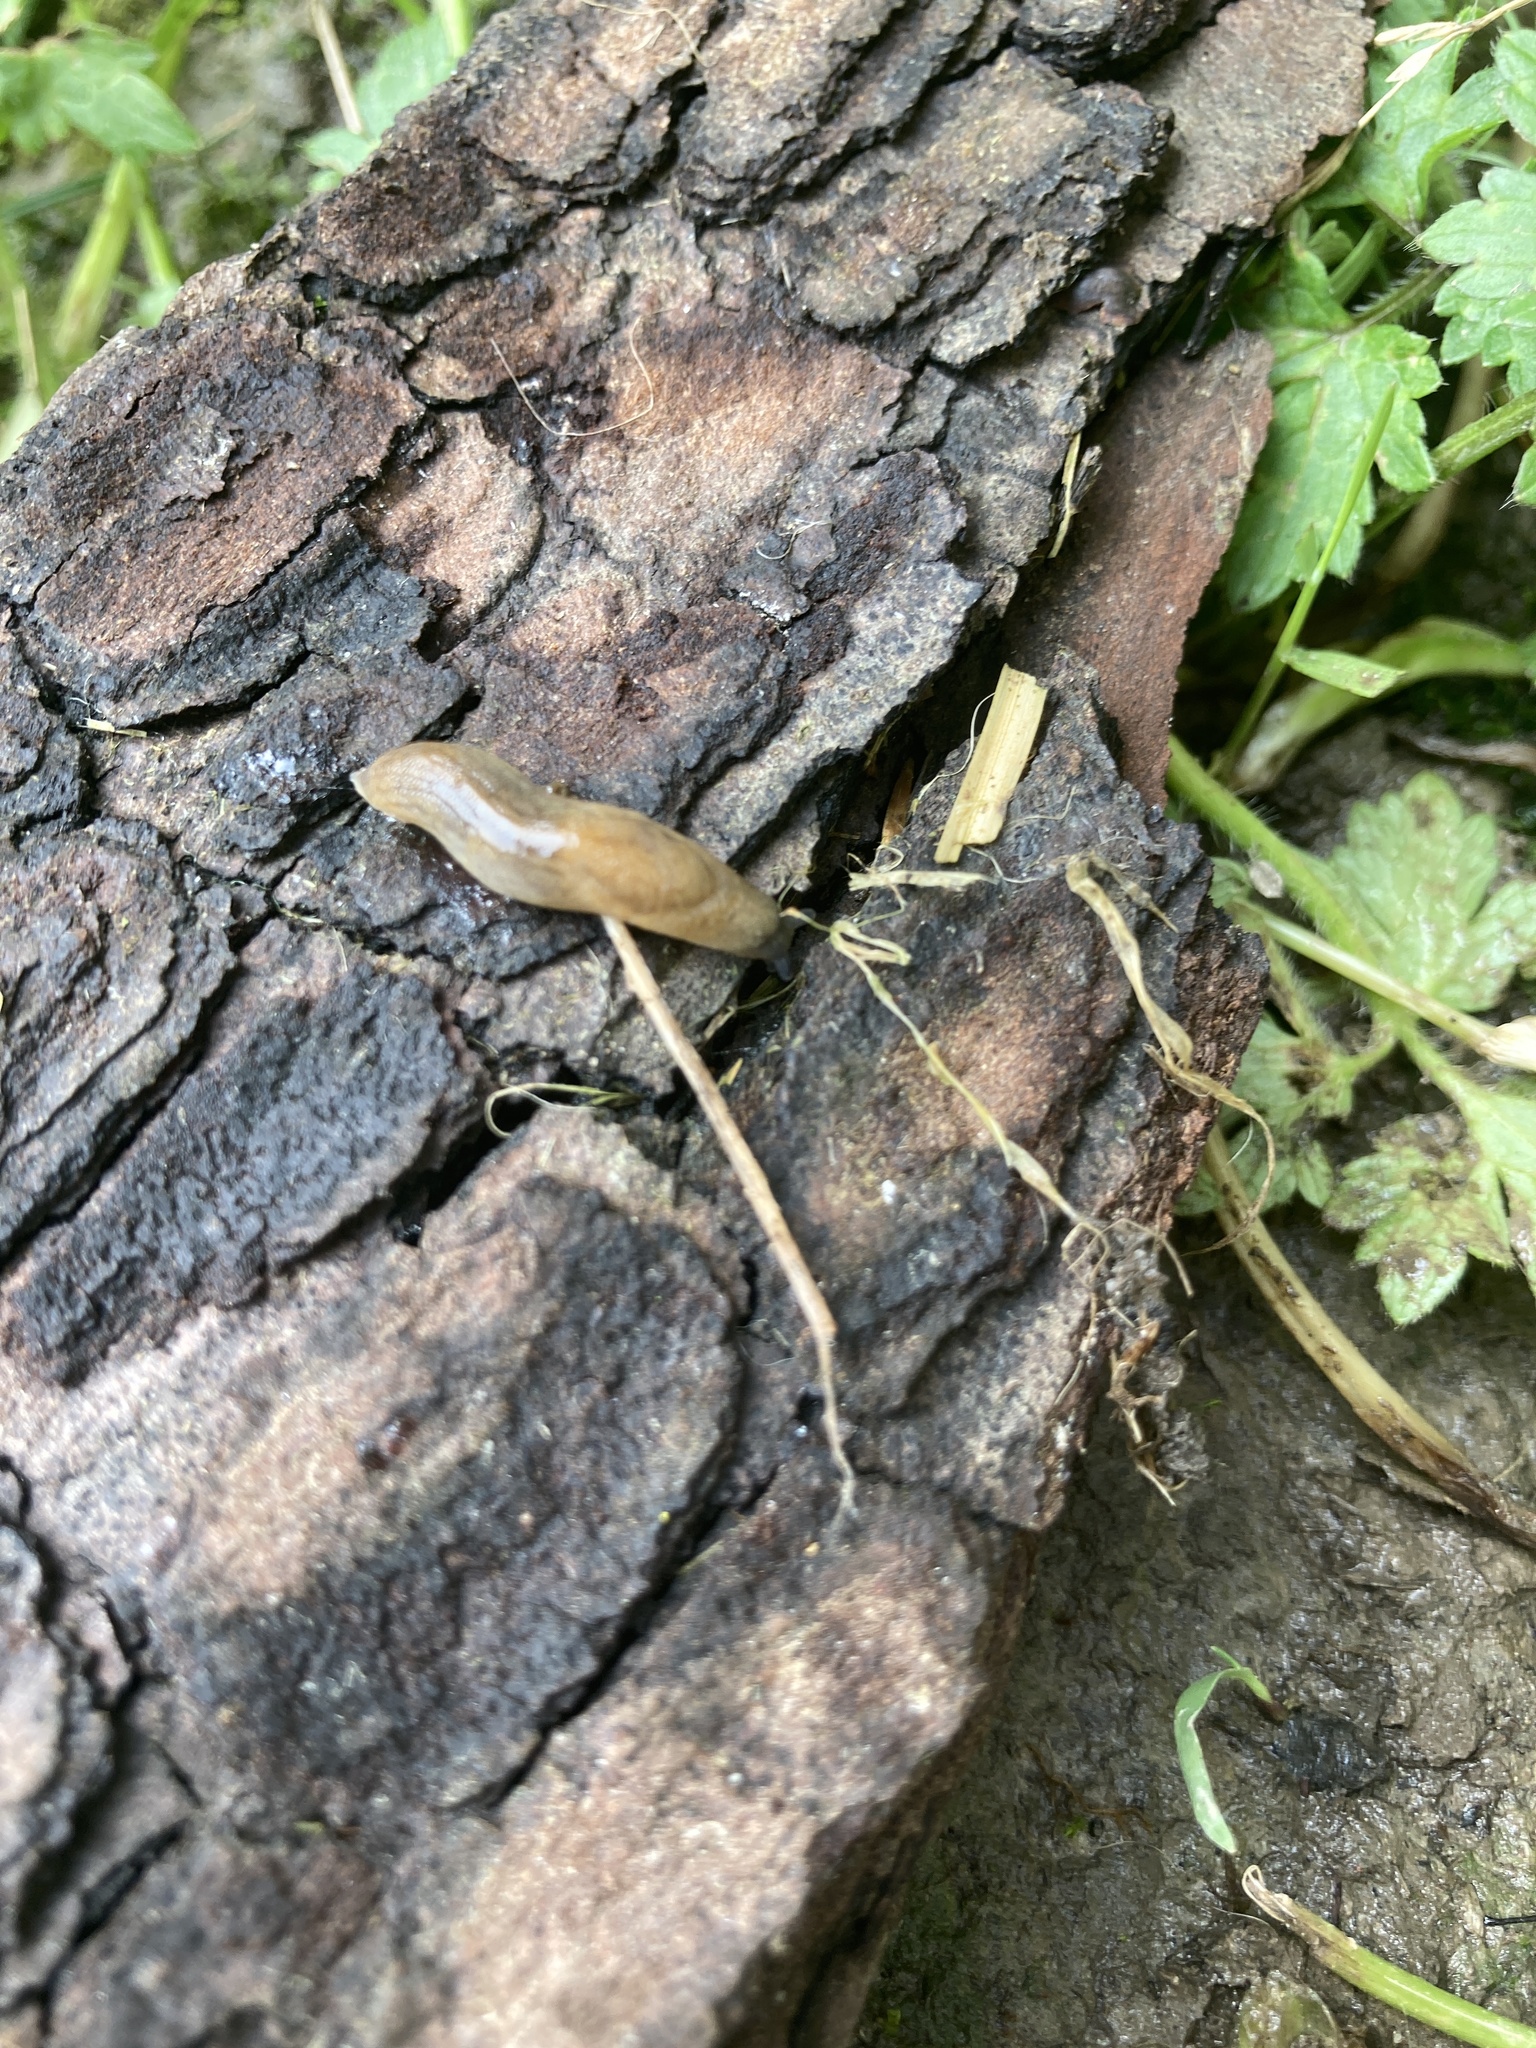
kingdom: Animalia
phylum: Mollusca
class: Gastropoda
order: Stylommatophora
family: Milacidae
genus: Milax
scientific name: Milax gagates
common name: Greenhouse slug
